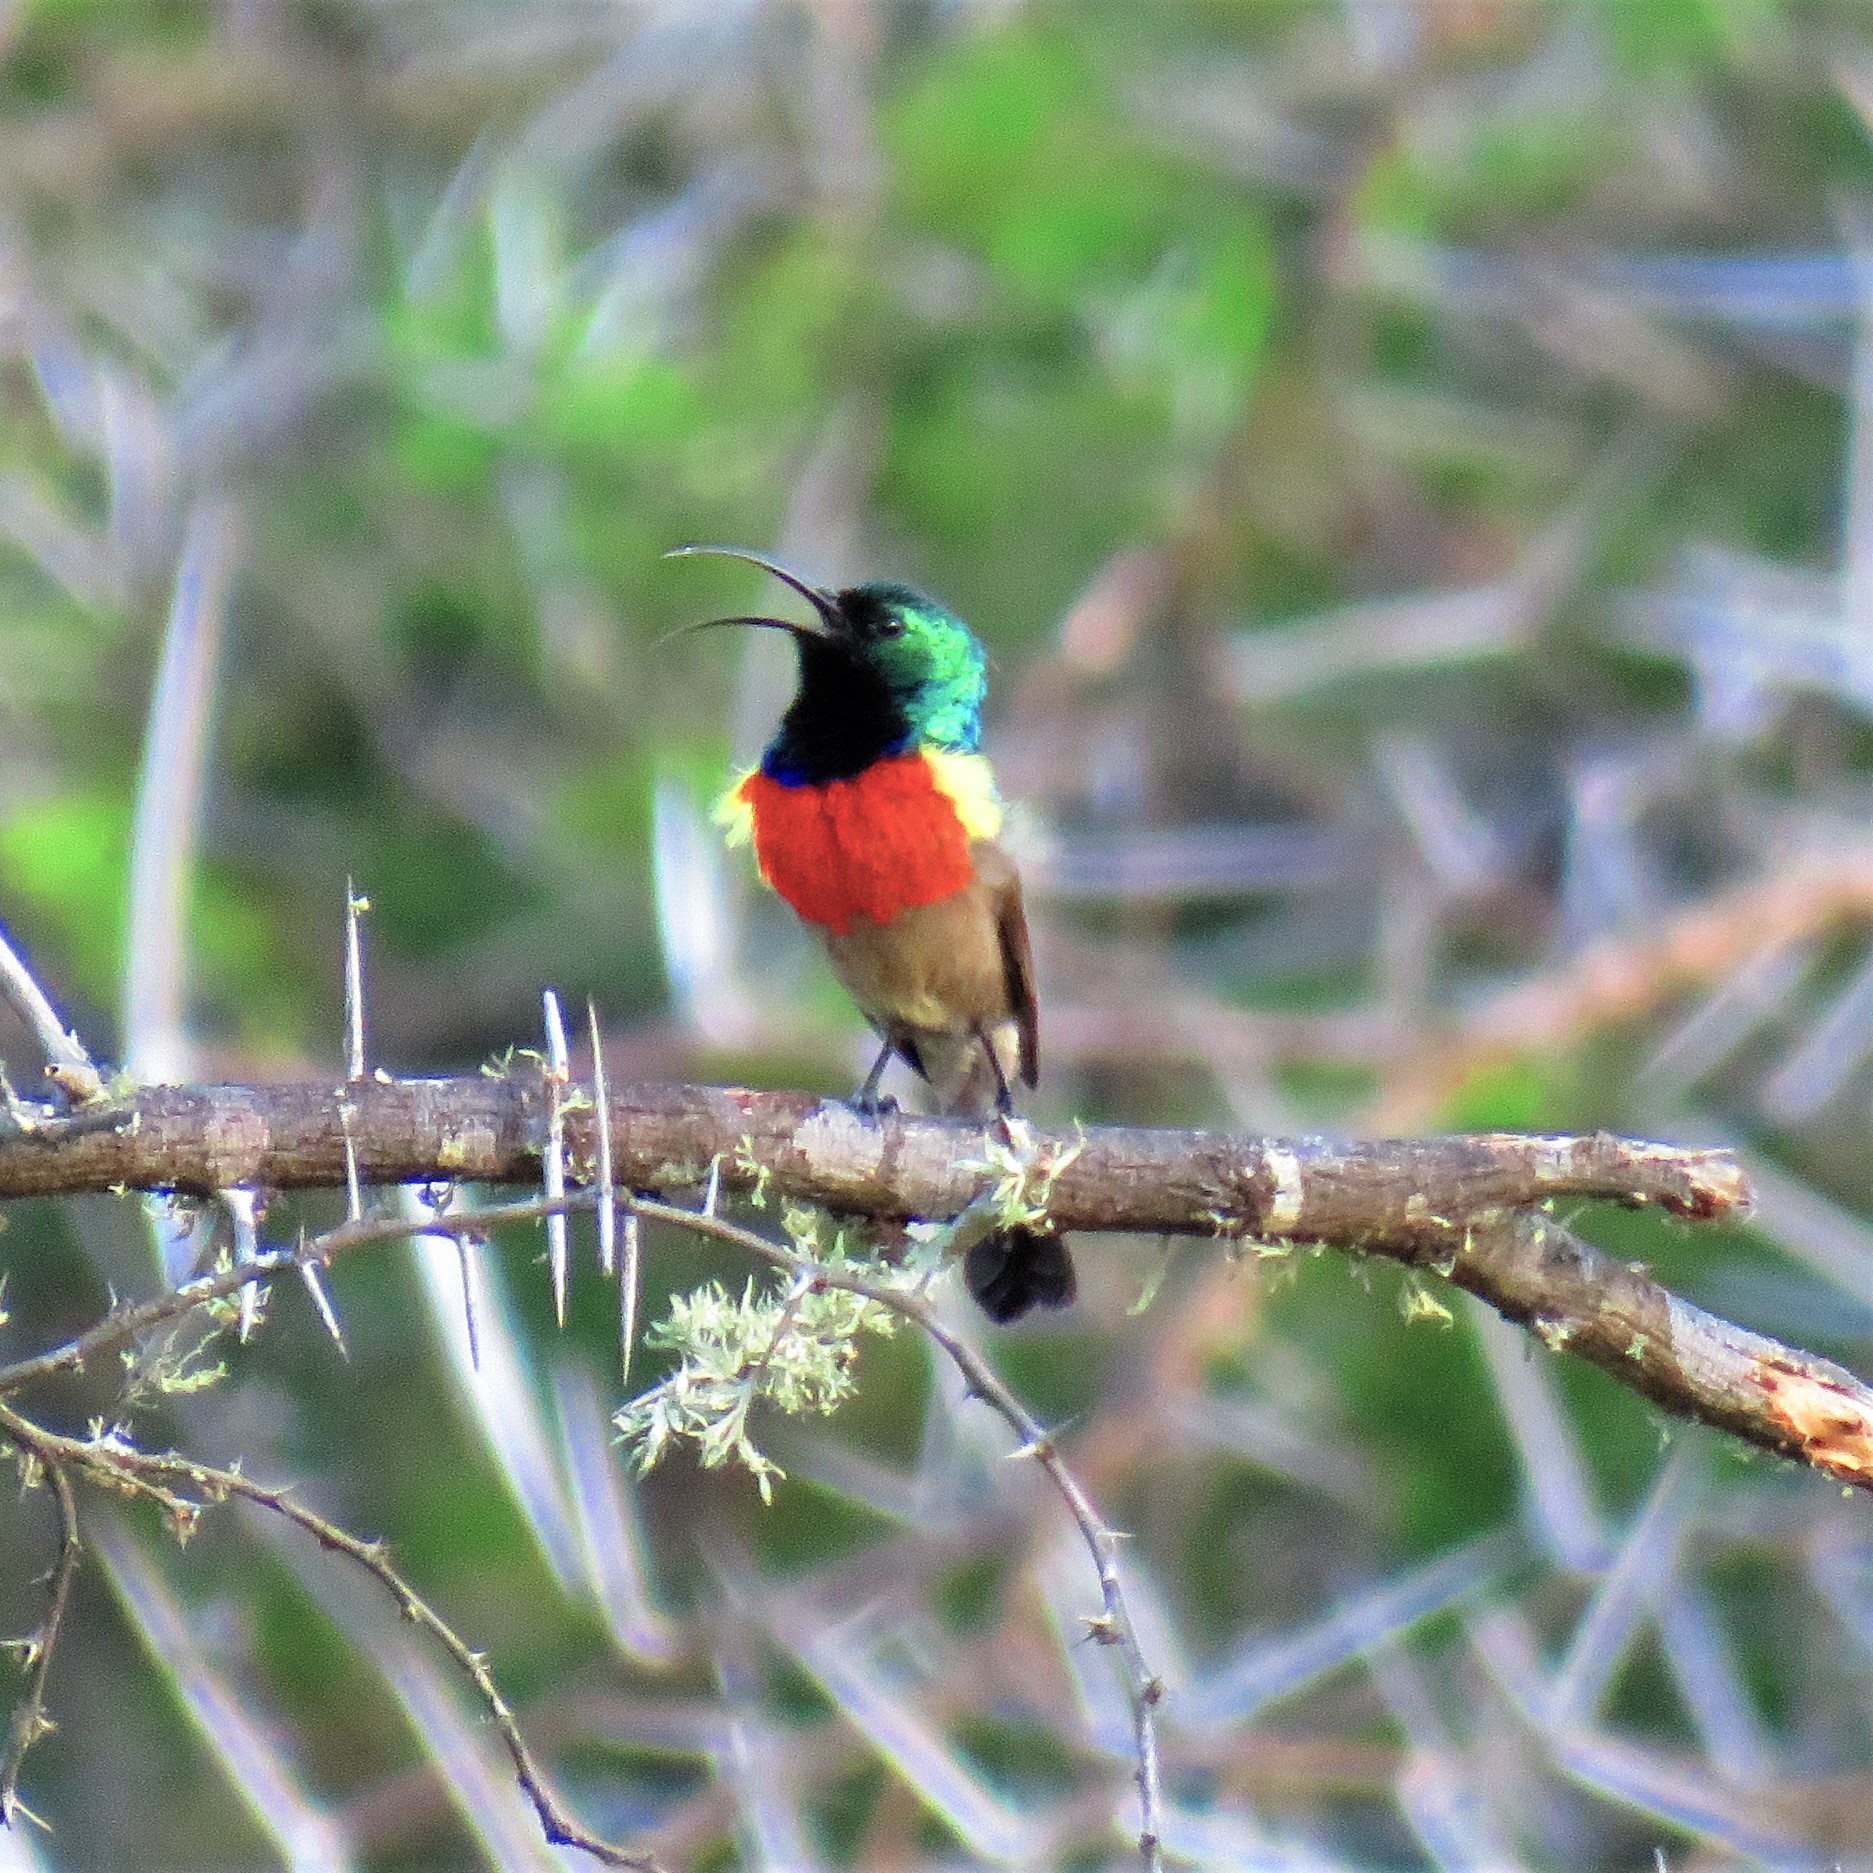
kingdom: Animalia
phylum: Chordata
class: Aves
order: Passeriformes
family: Nectariniidae
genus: Cinnyris
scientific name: Cinnyris afer
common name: Greater double-collared sunbird
